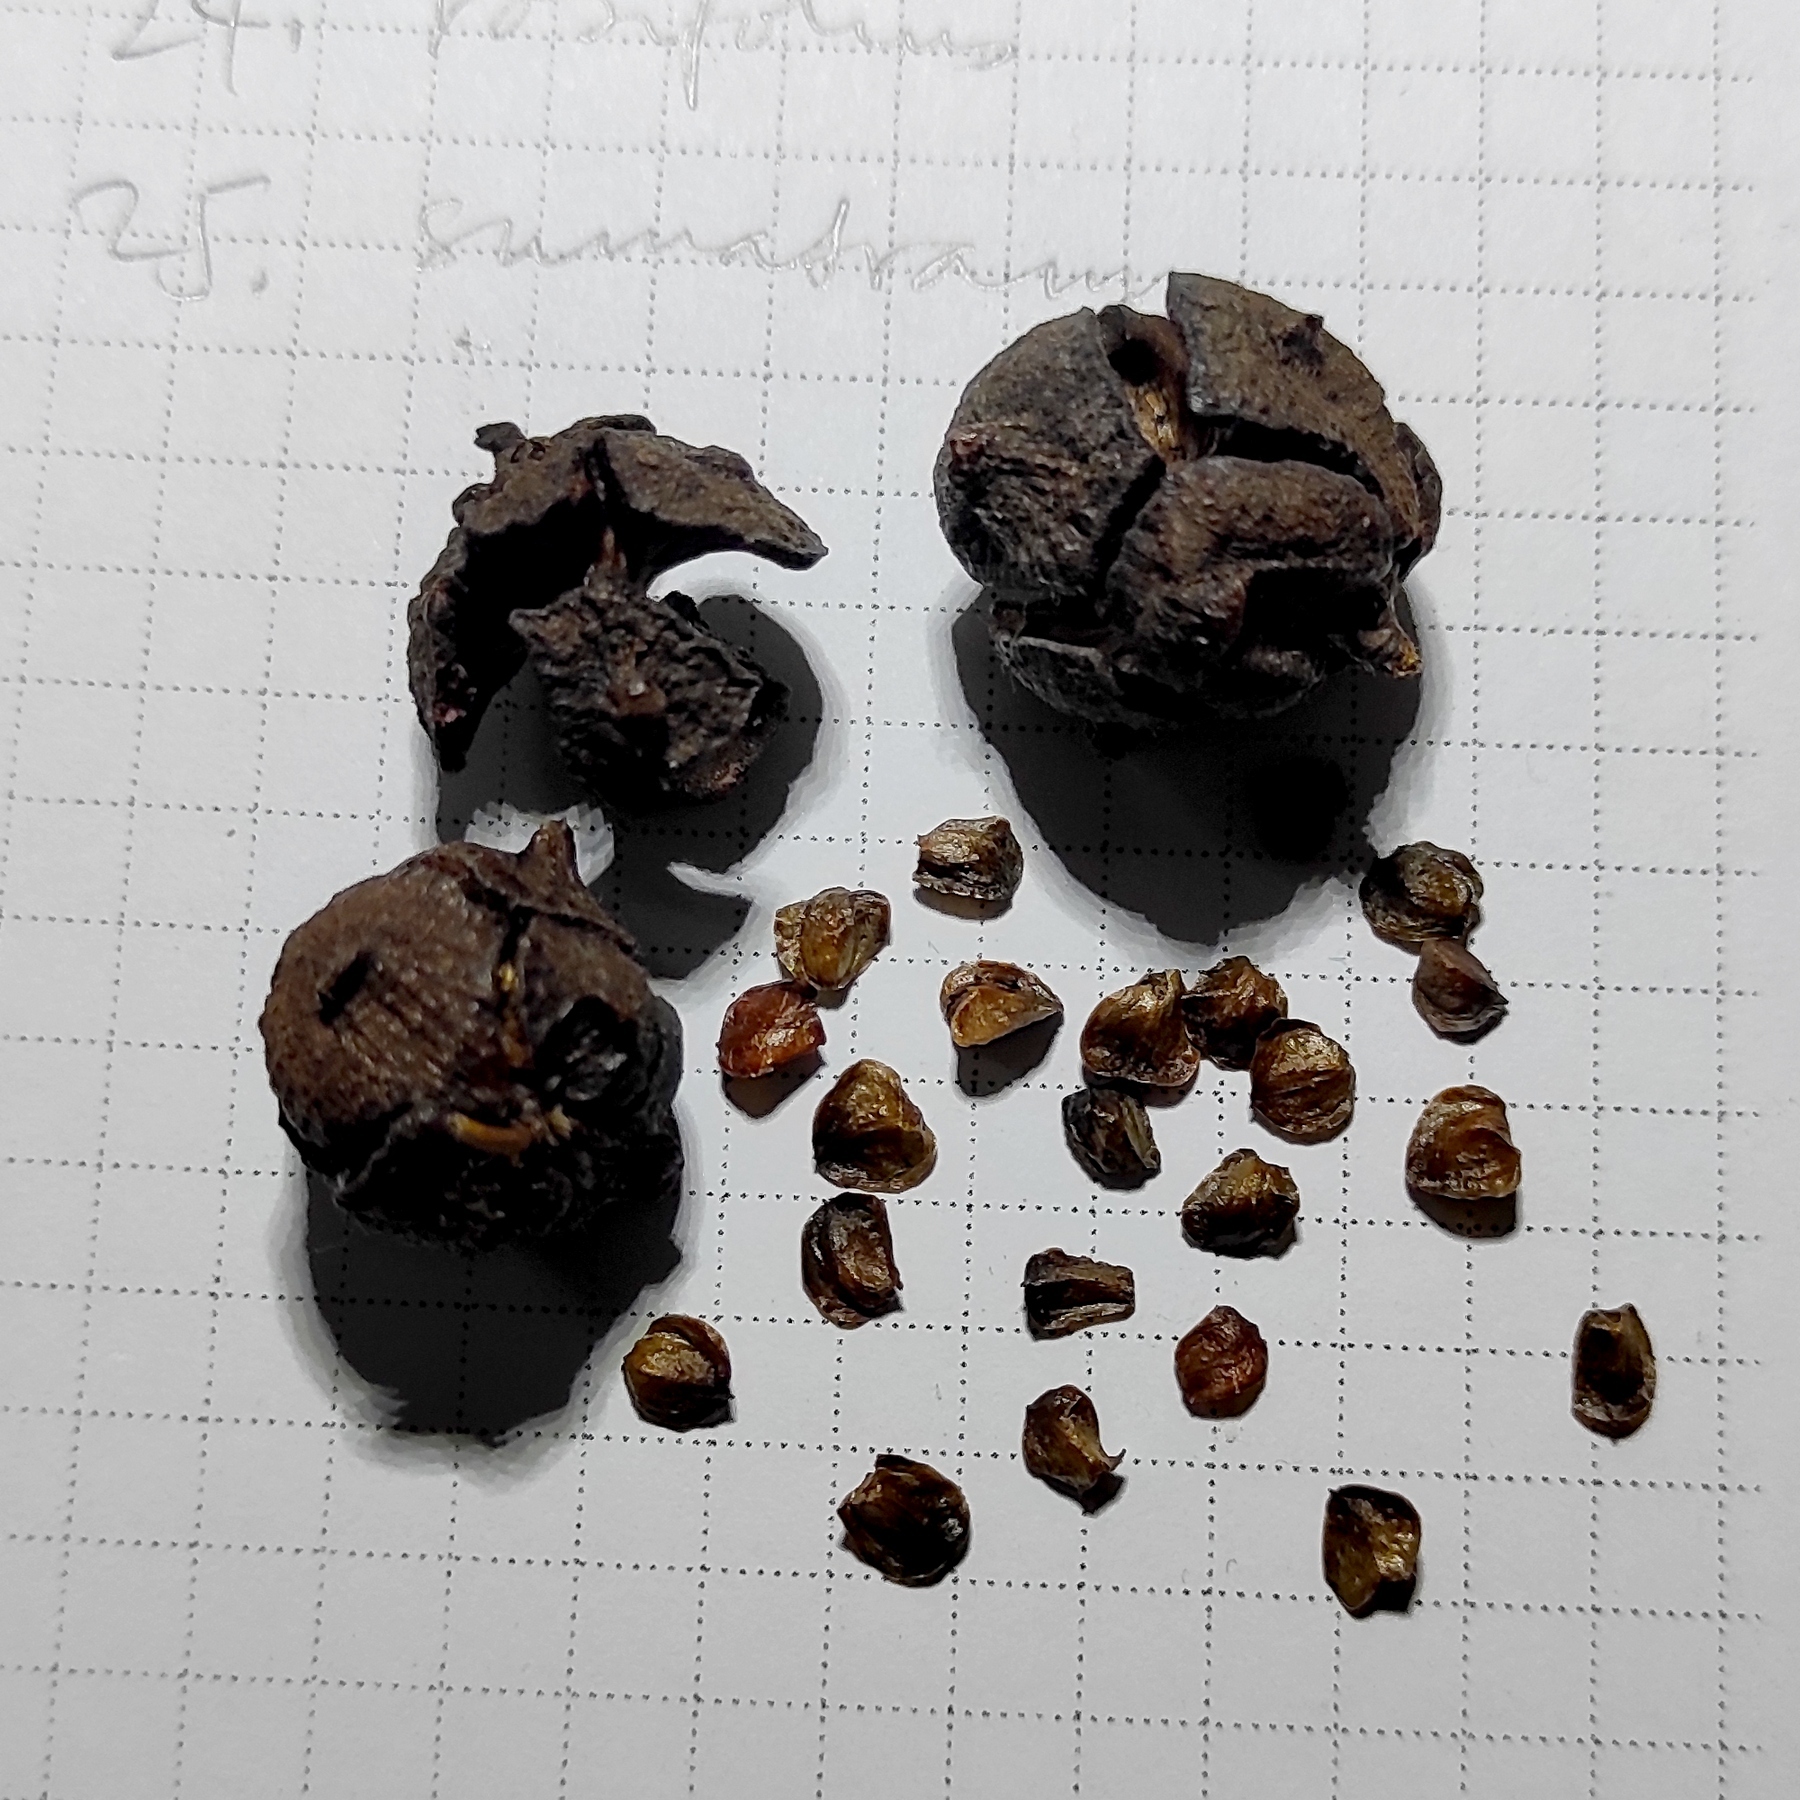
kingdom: Plantae
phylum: Tracheophyta
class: Pinopsida
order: Pinales
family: Cupressaceae
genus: Cupressus
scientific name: Cupressus lusitanica
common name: Mexican cypress
